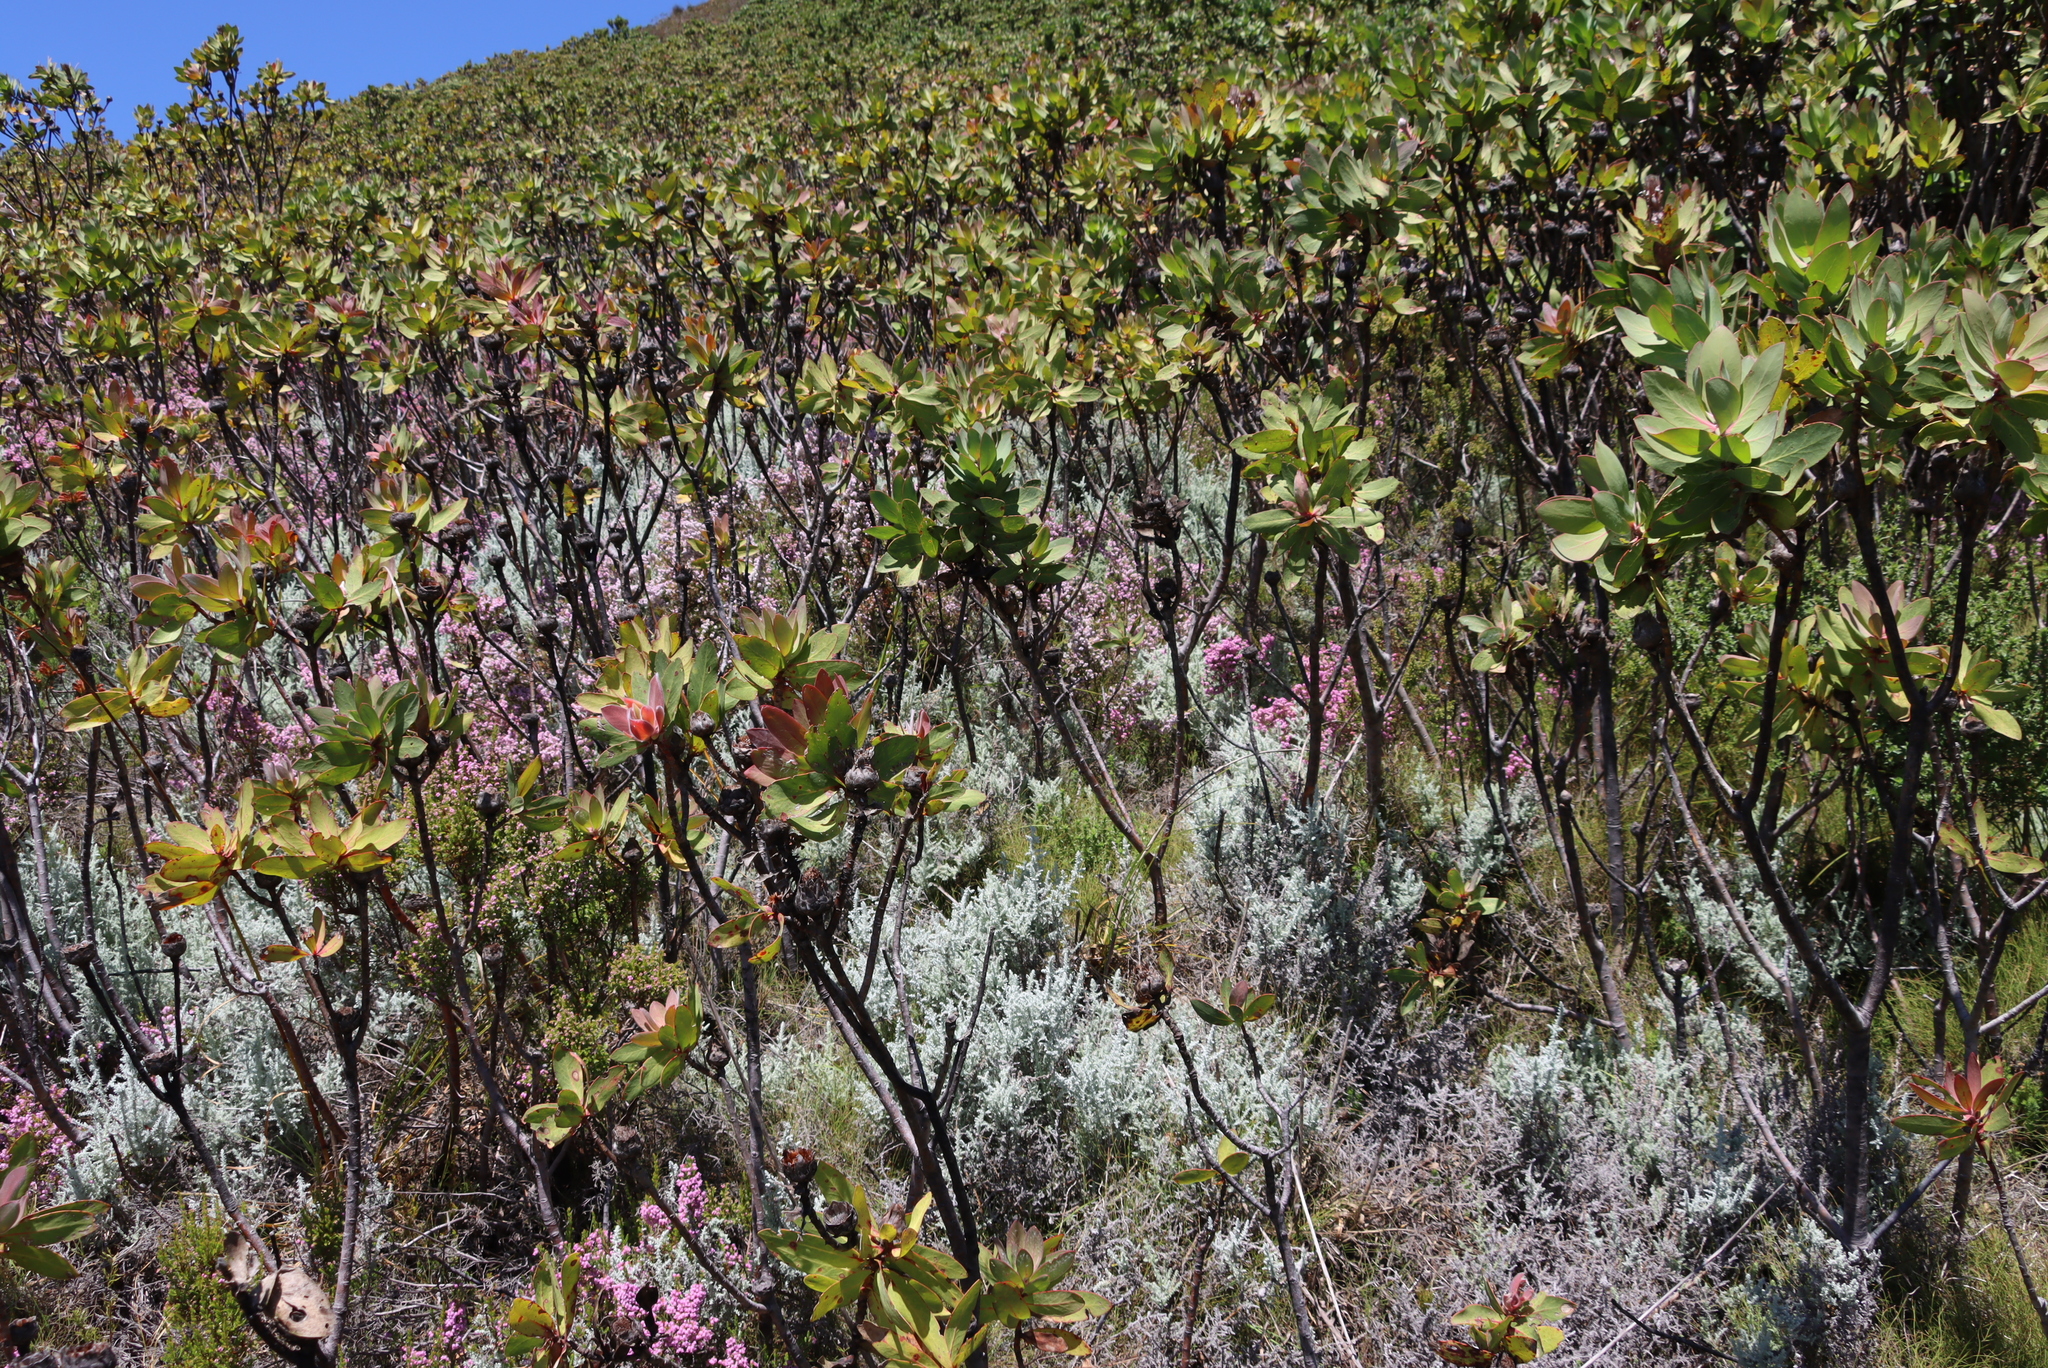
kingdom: Plantae
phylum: Tracheophyta
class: Magnoliopsida
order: Asterales
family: Asteraceae
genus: Seriphium
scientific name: Seriphium plumosum
